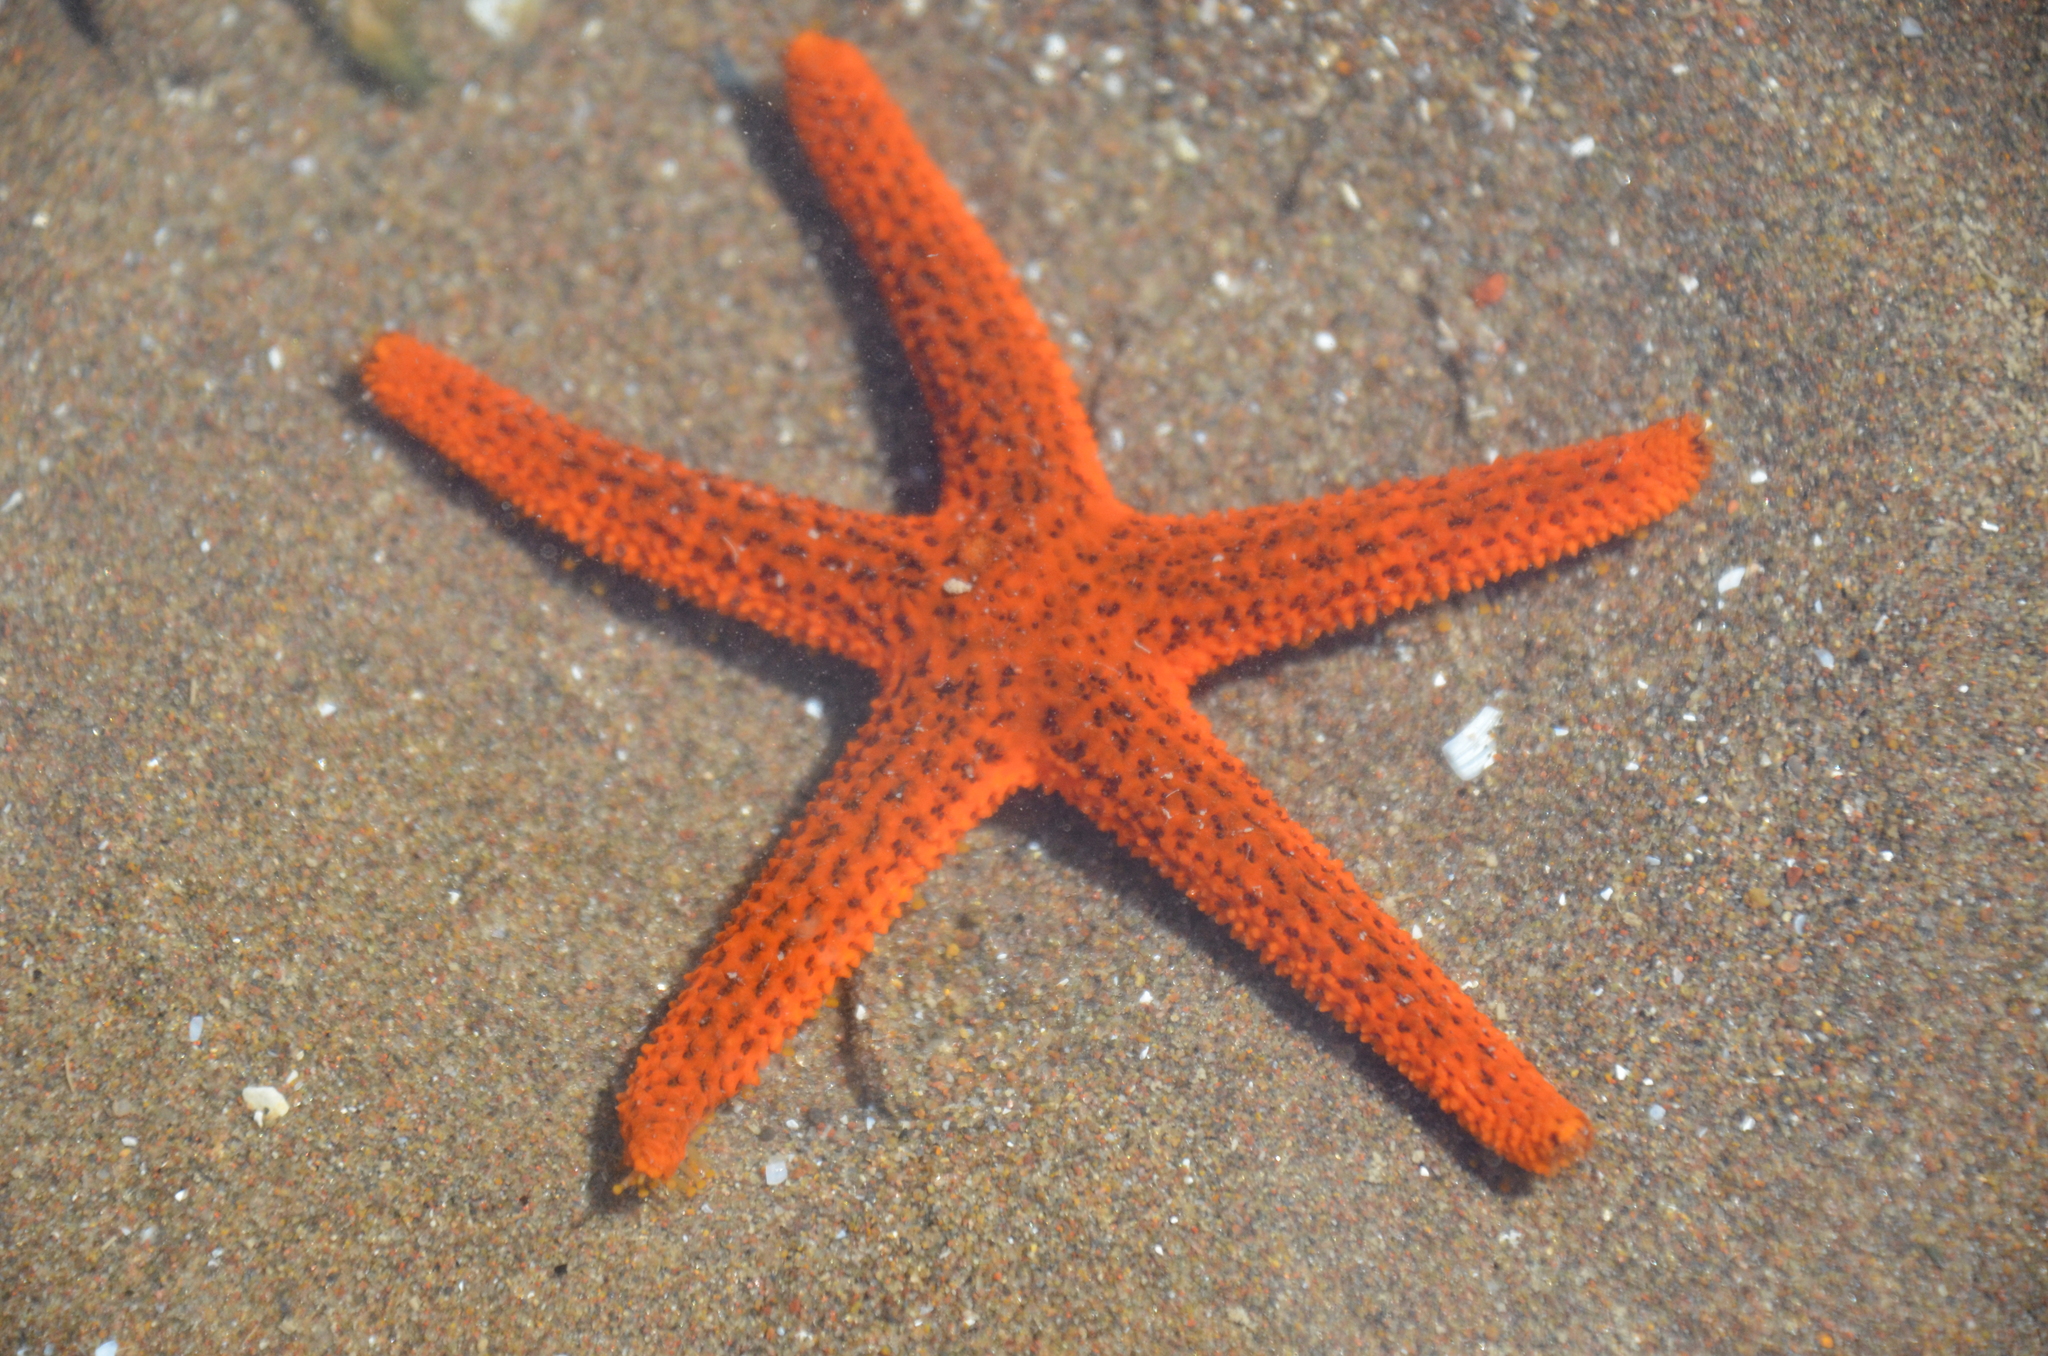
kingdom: Animalia
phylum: Echinodermata
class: Asteroidea
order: Spinulosida
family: Echinasteridae
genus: Echinaster
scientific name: Echinaster brasiliensis
